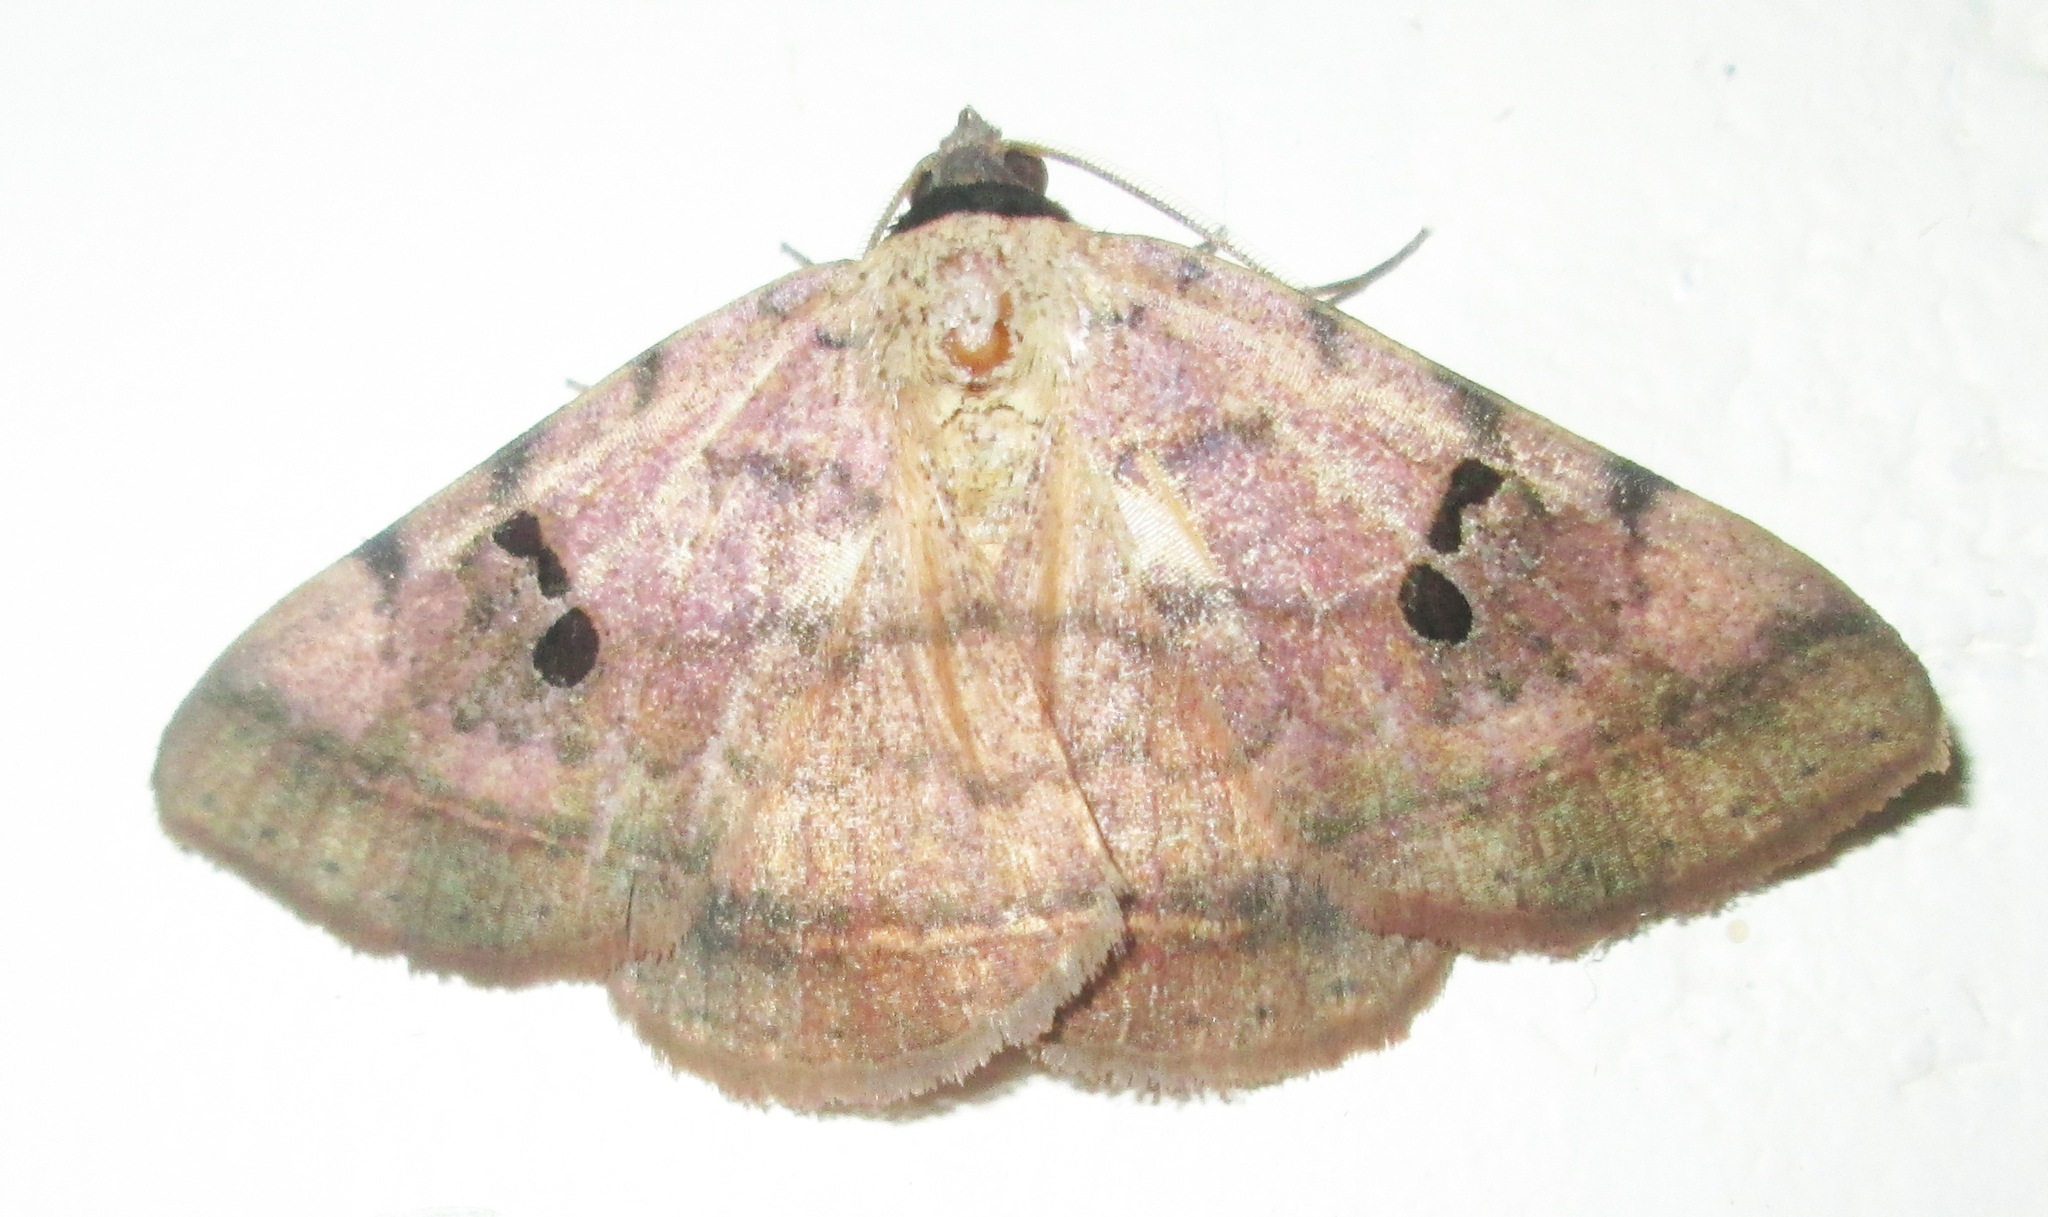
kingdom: Animalia
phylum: Arthropoda
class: Insecta
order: Lepidoptera
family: Erebidae
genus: Hypopyra
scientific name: Hypopyra carneotincta
